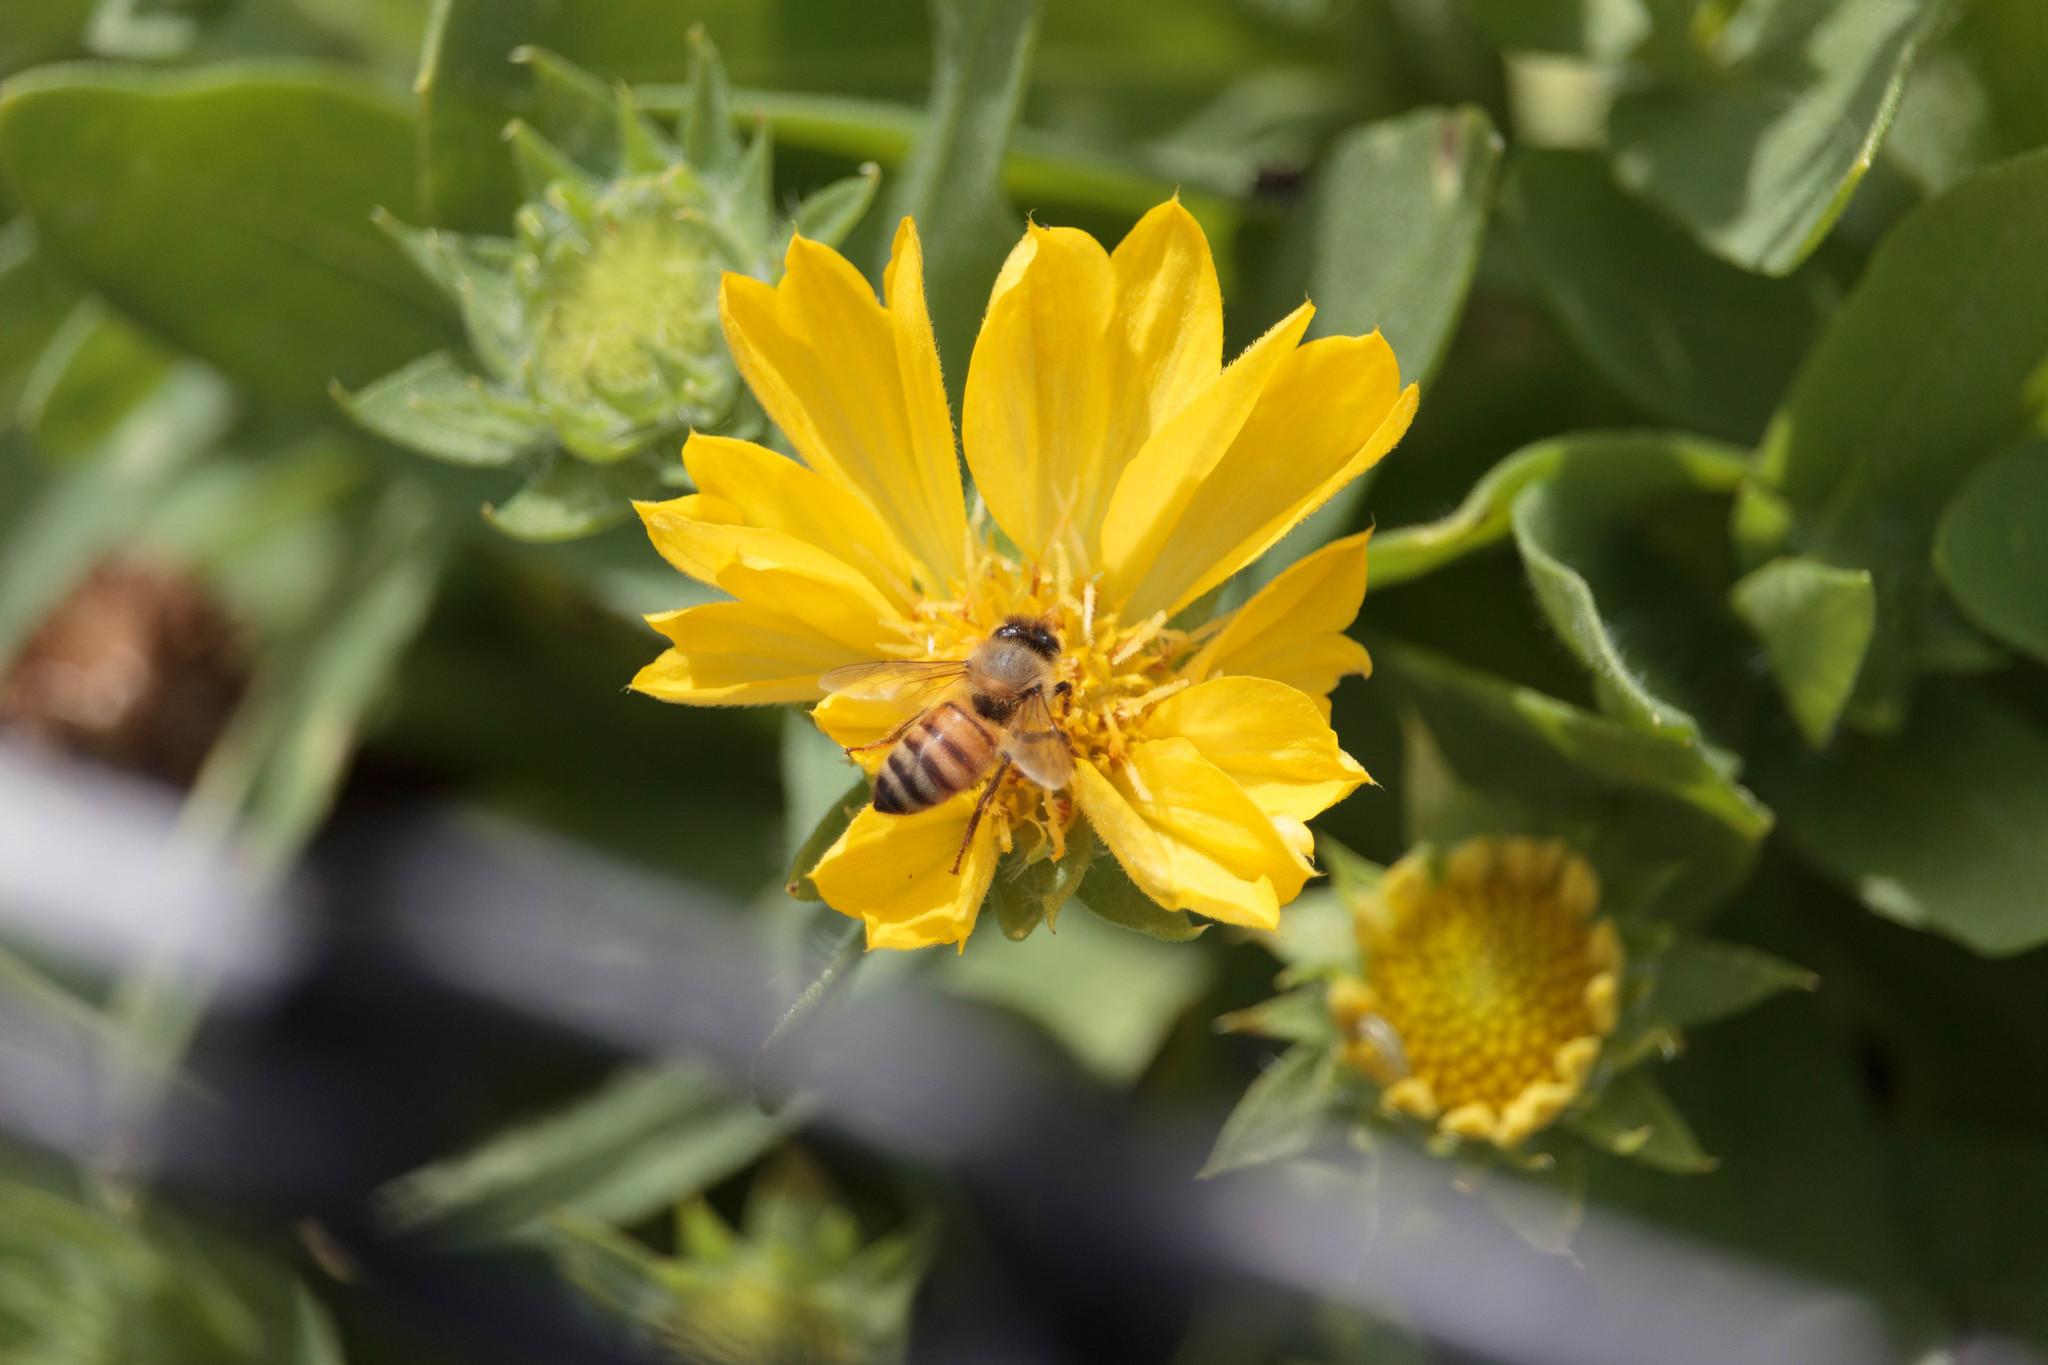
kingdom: Animalia
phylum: Arthropoda
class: Insecta
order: Hymenoptera
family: Apidae
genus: Apis
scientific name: Apis mellifera
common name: Honey bee
